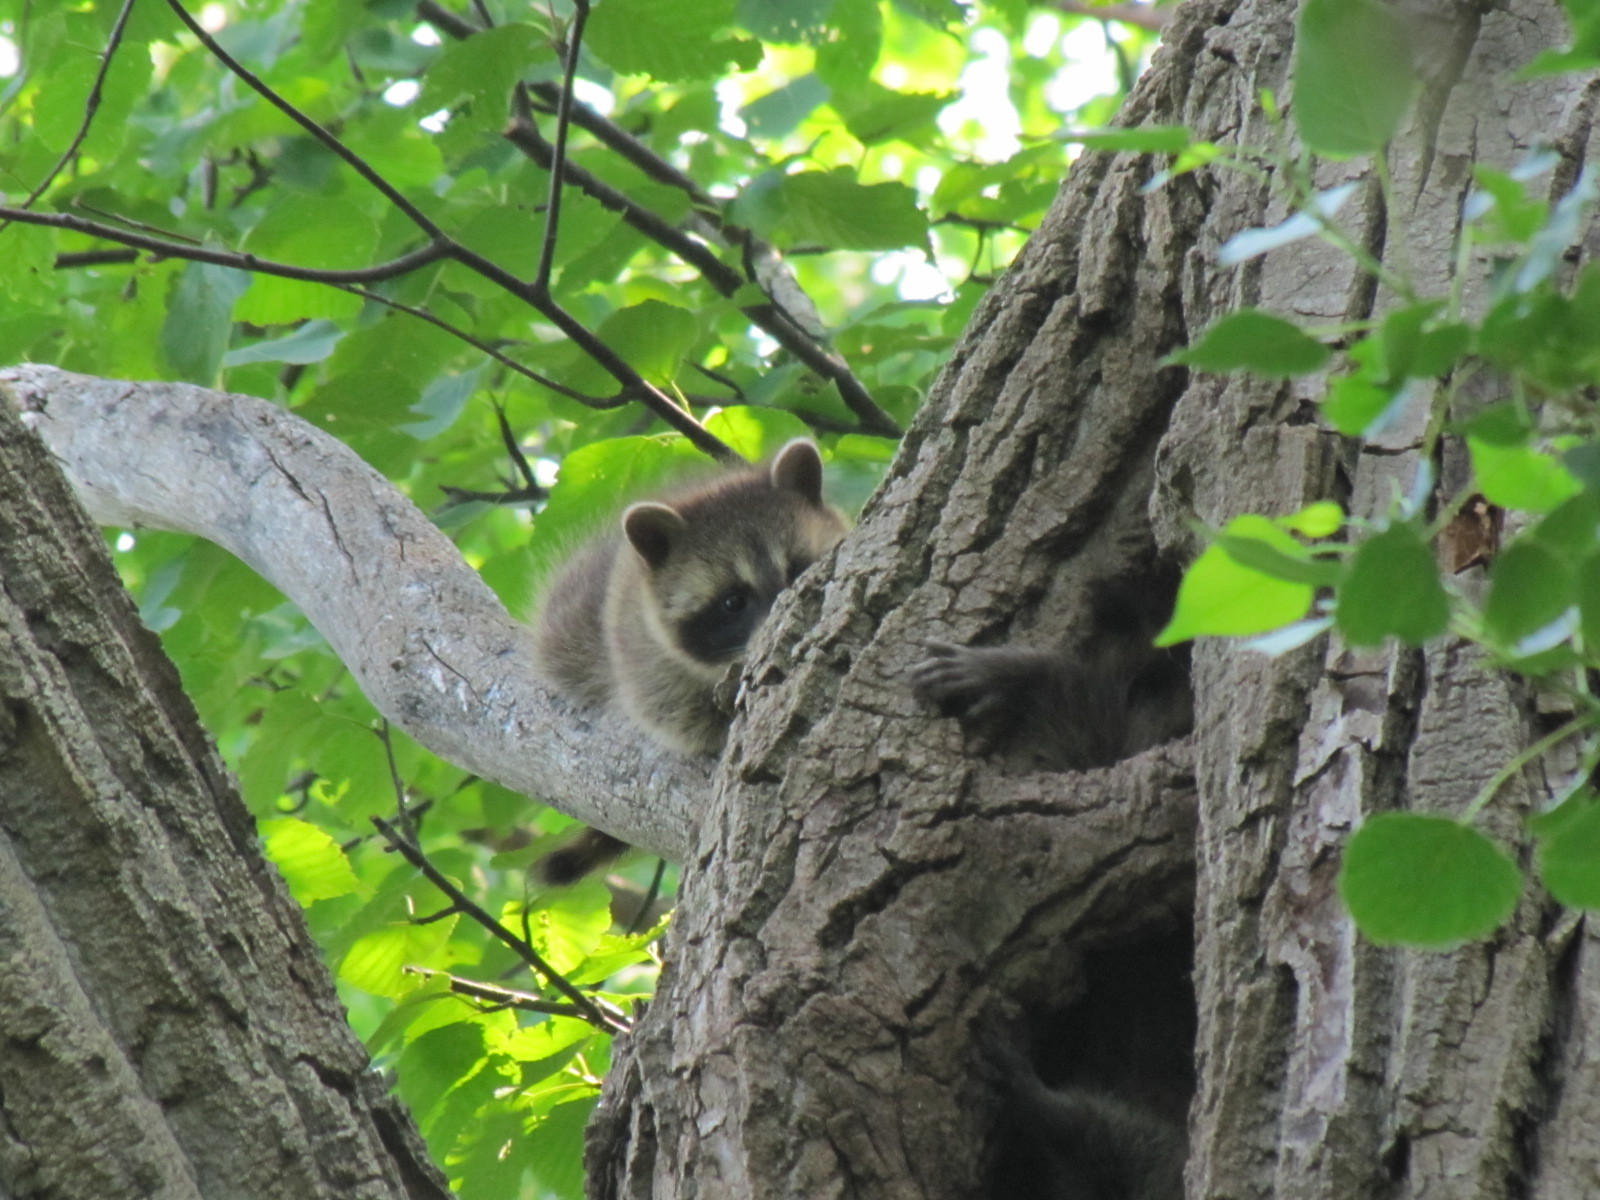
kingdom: Animalia
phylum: Chordata
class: Mammalia
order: Carnivora
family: Procyonidae
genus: Procyon
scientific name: Procyon lotor
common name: Raccoon
